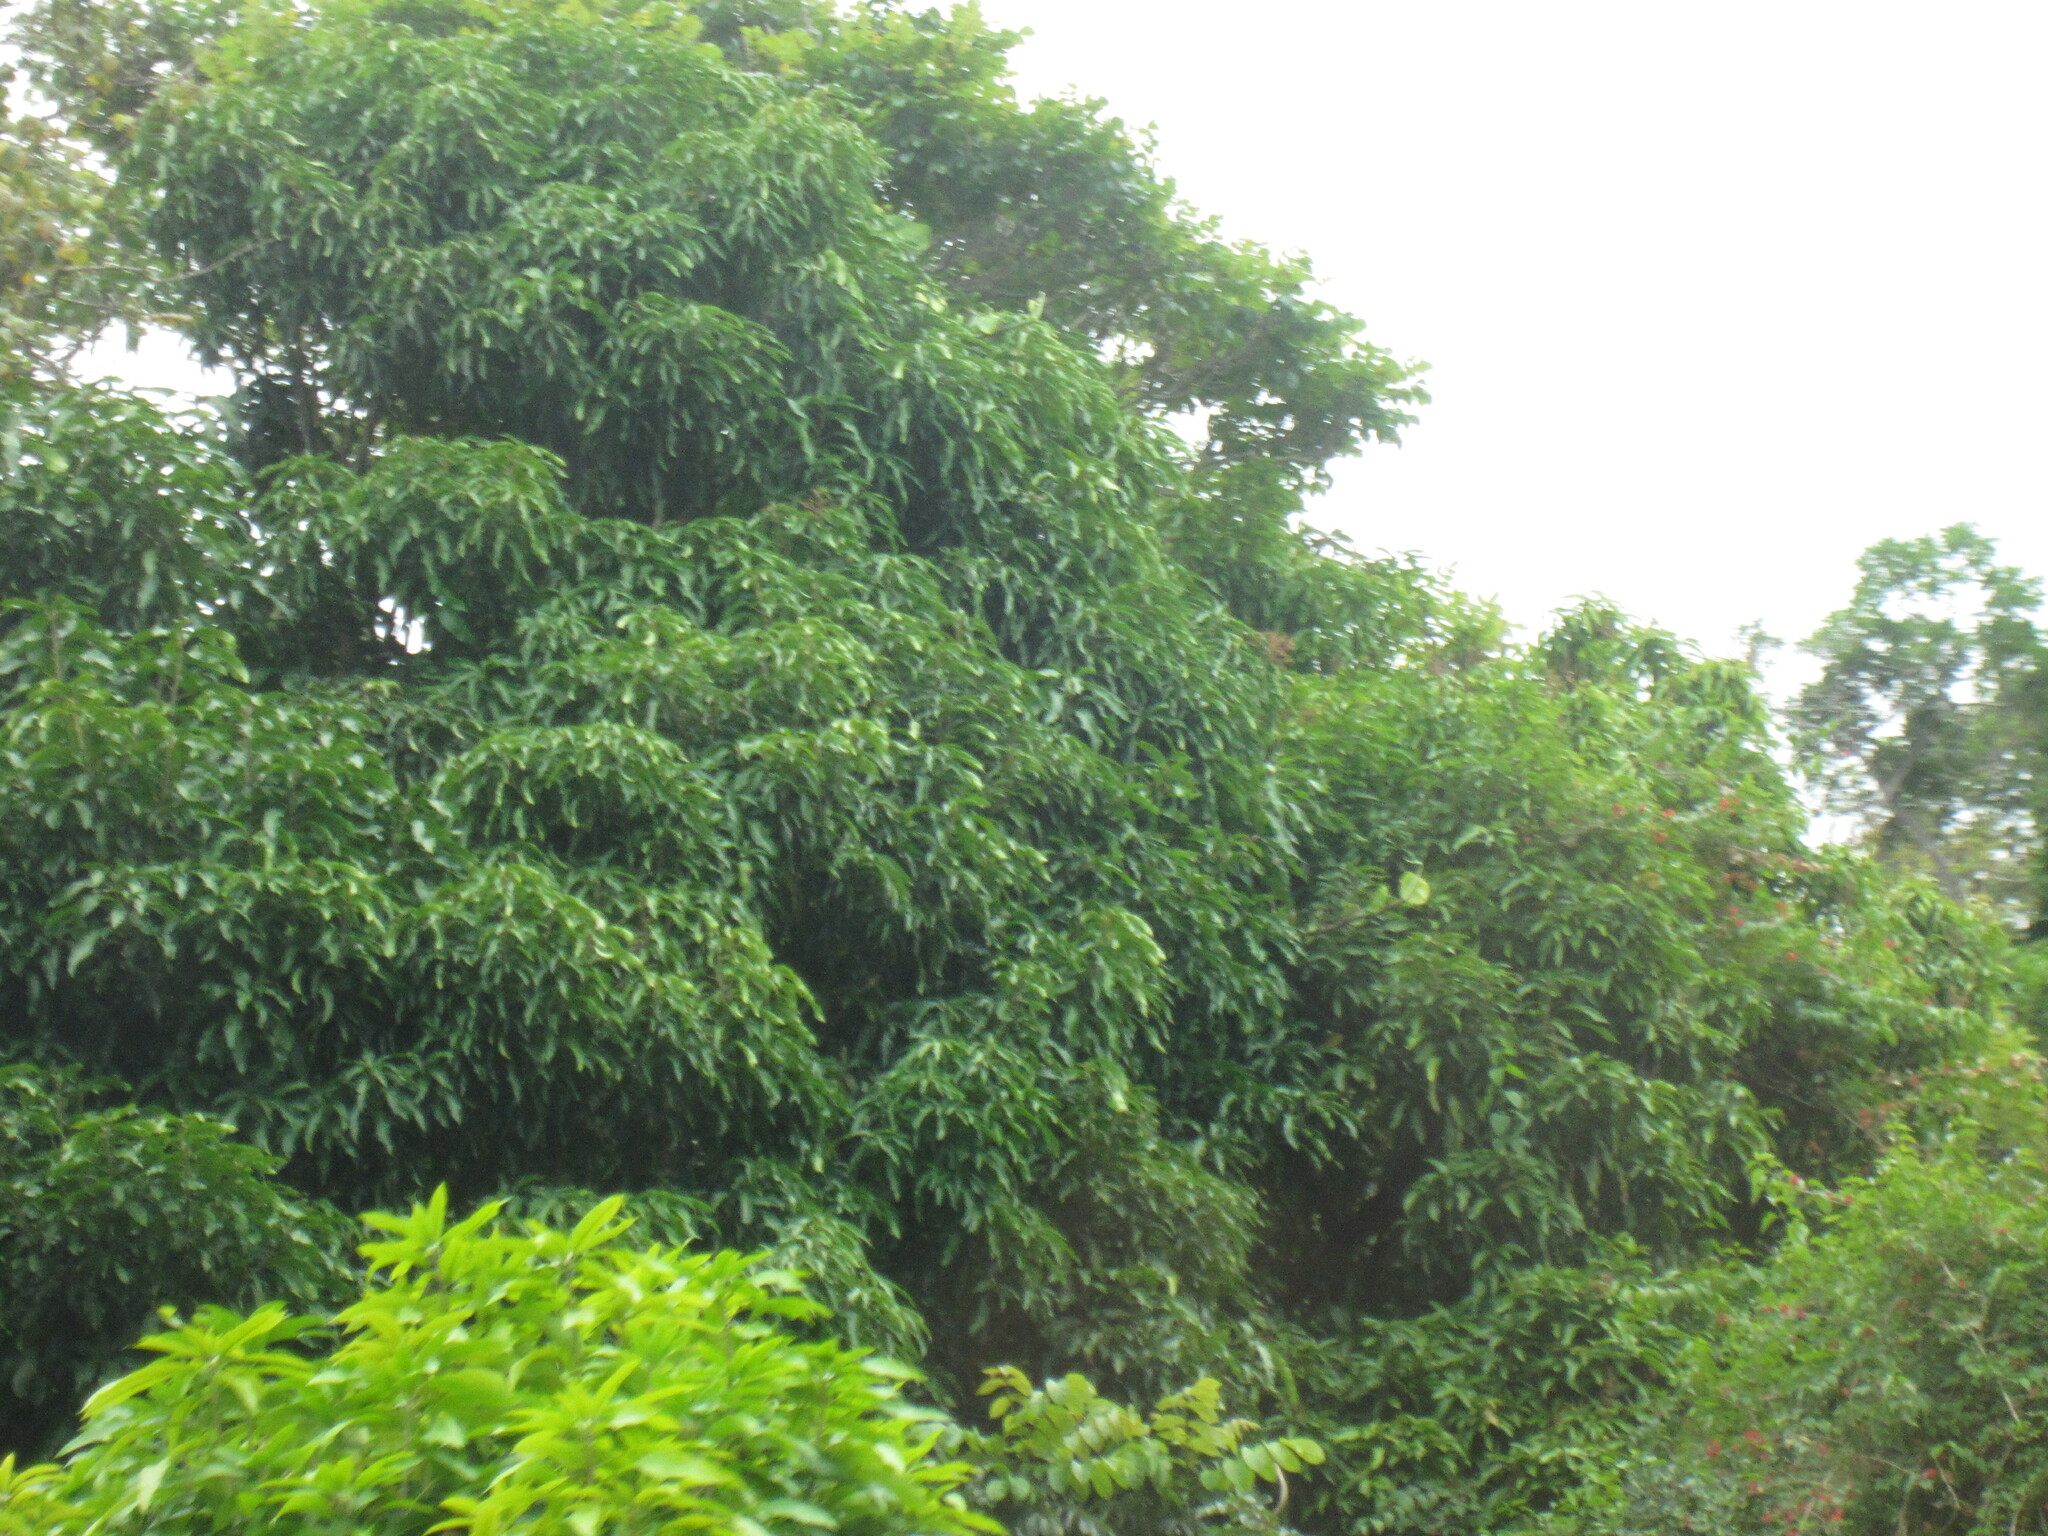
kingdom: Plantae
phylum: Tracheophyta
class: Magnoliopsida
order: Sapindales
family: Anacardiaceae
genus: Mangifera
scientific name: Mangifera indica
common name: Mango
